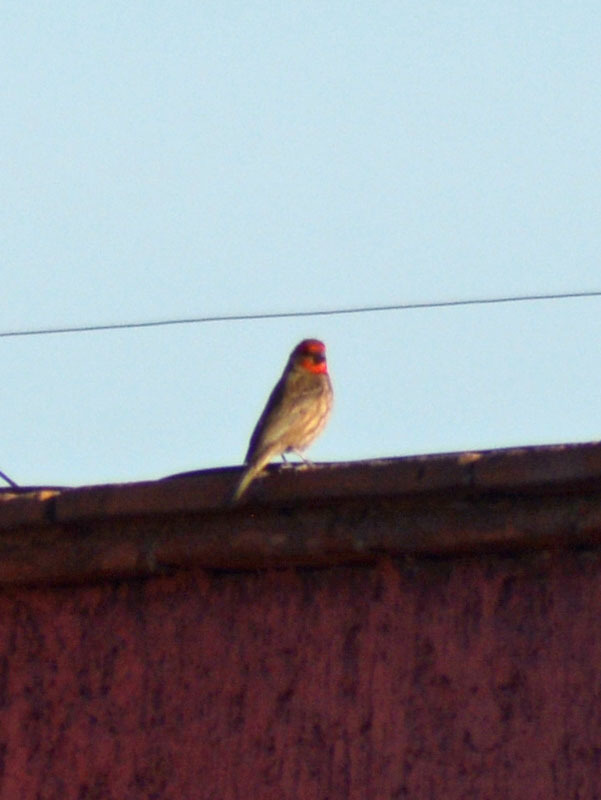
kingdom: Animalia
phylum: Chordata
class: Aves
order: Passeriformes
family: Fringillidae
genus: Haemorhous
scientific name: Haemorhous mexicanus
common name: House finch
